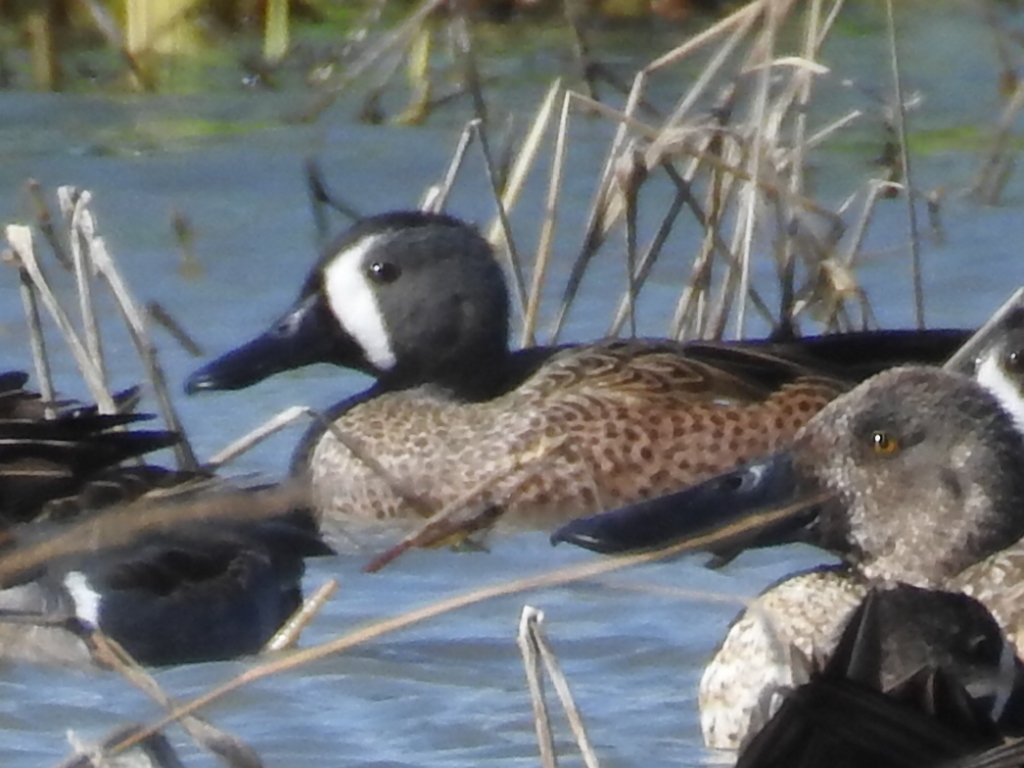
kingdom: Animalia
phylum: Chordata
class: Aves
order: Anseriformes
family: Anatidae
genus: Spatula
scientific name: Spatula discors
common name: Blue-winged teal
